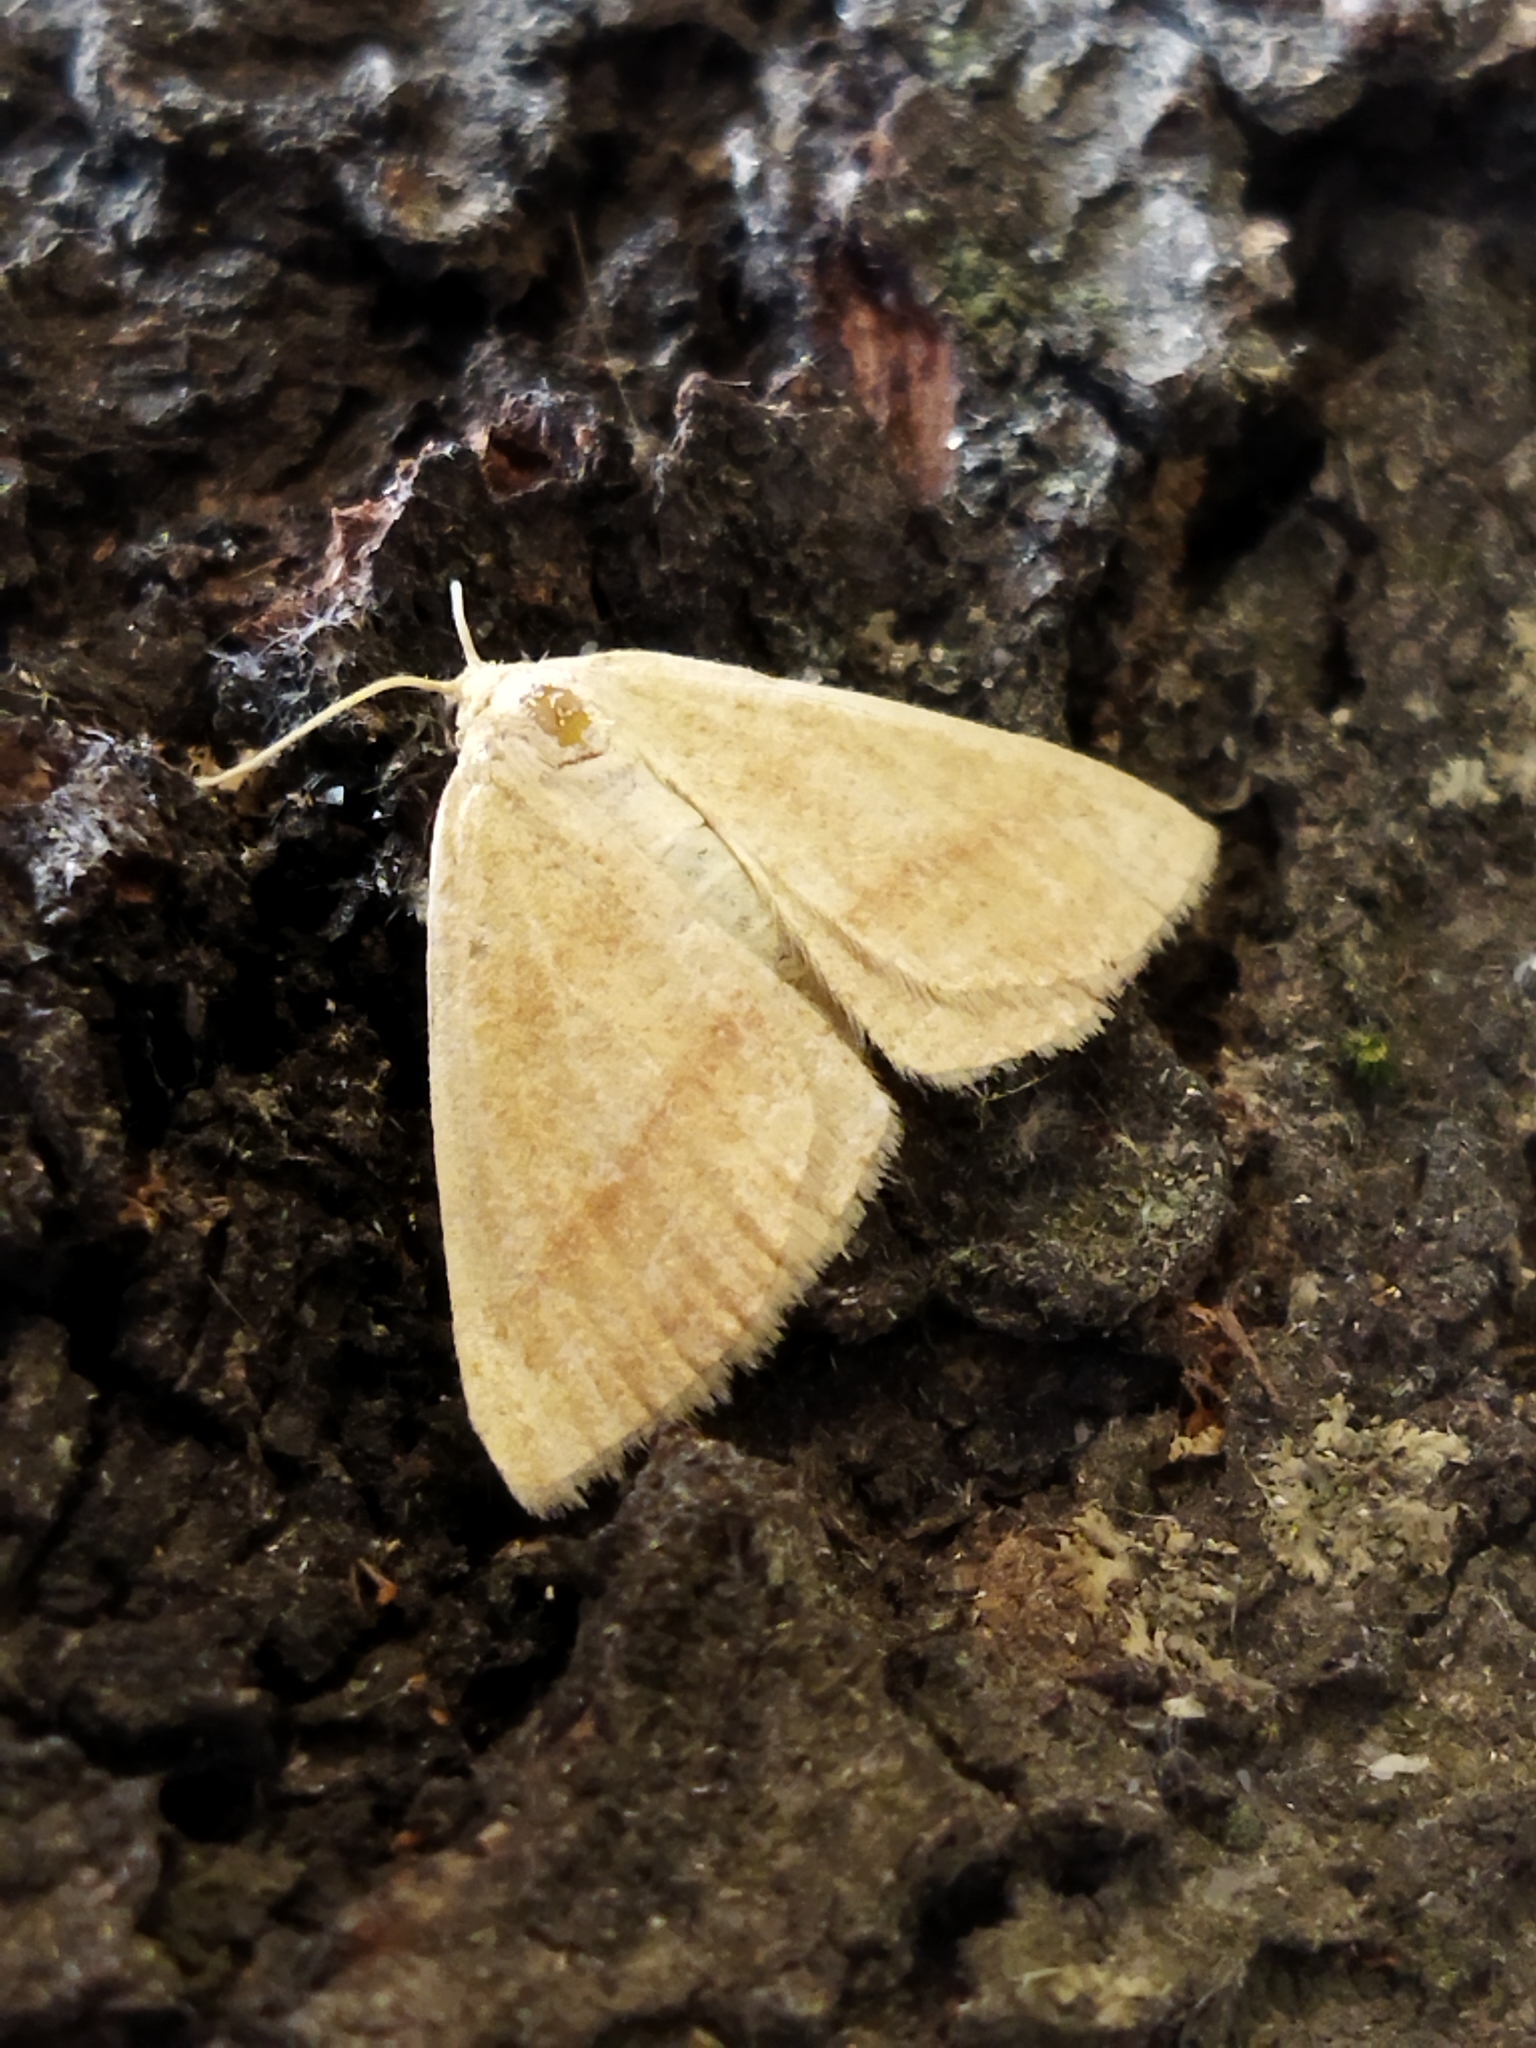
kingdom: Animalia
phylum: Arthropoda
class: Insecta
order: Lepidoptera
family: Geometridae
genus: Aplasta
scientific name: Aplasta ononaria
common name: Rest harrow
